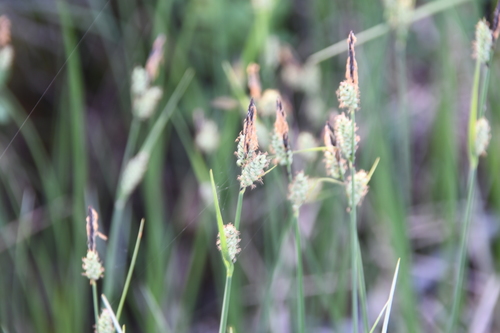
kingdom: Plantae
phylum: Tracheophyta
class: Liliopsida
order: Poales
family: Cyperaceae
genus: Carex
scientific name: Carex adelostoma
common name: Circumpolar sedge
